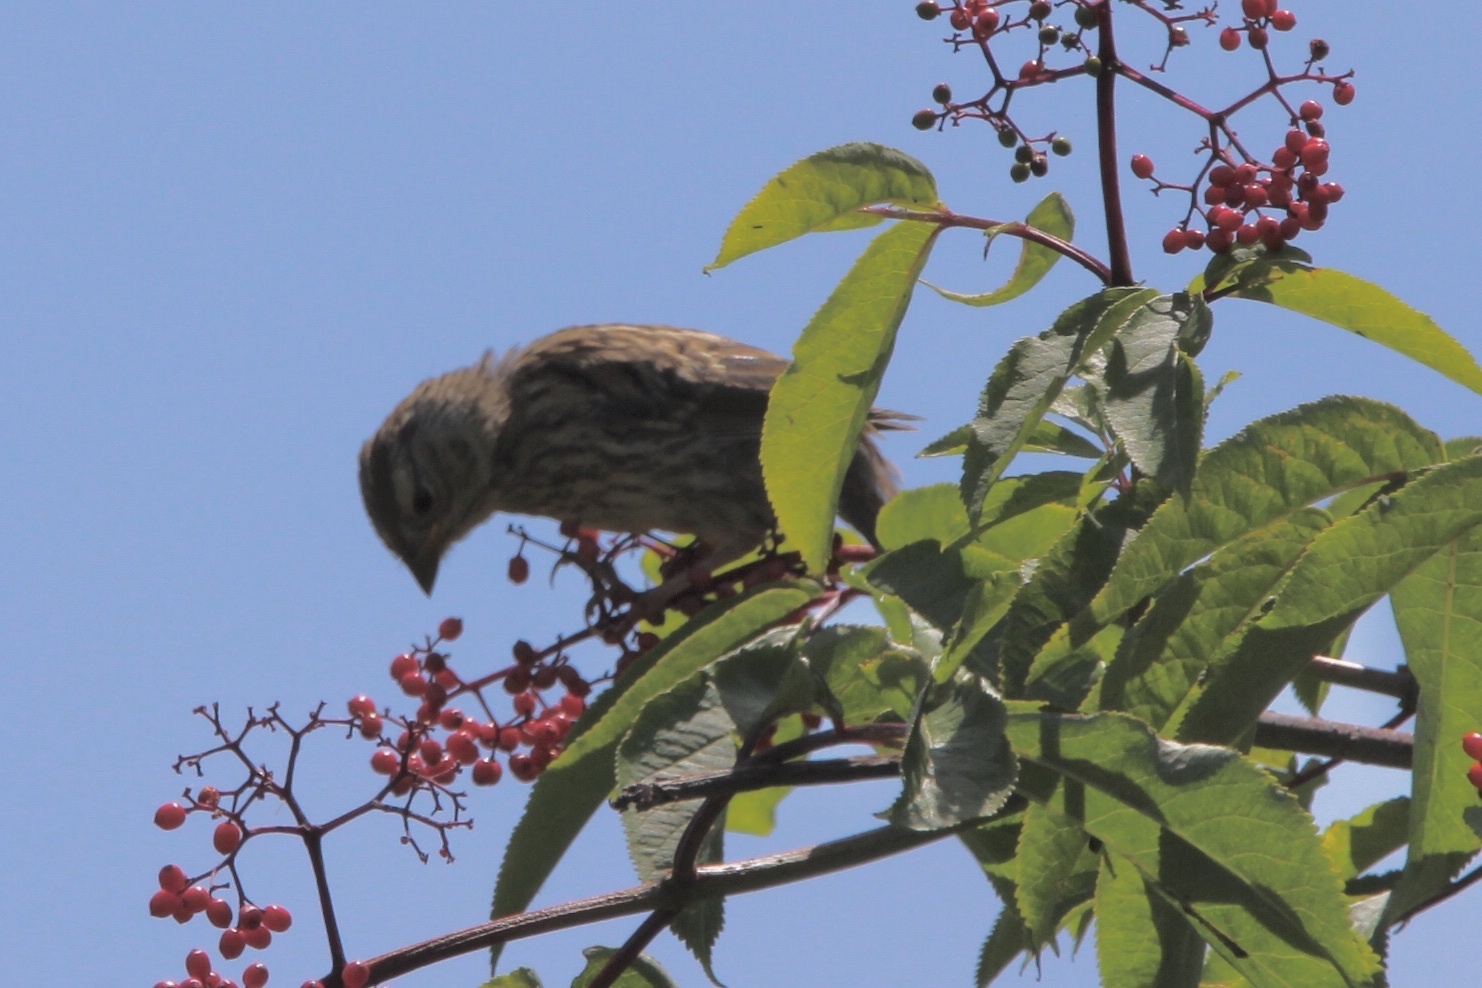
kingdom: Animalia
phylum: Chordata
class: Aves
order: Passeriformes
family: Passerellidae
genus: Zonotrichia
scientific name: Zonotrichia leucophrys
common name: White-crowned sparrow
